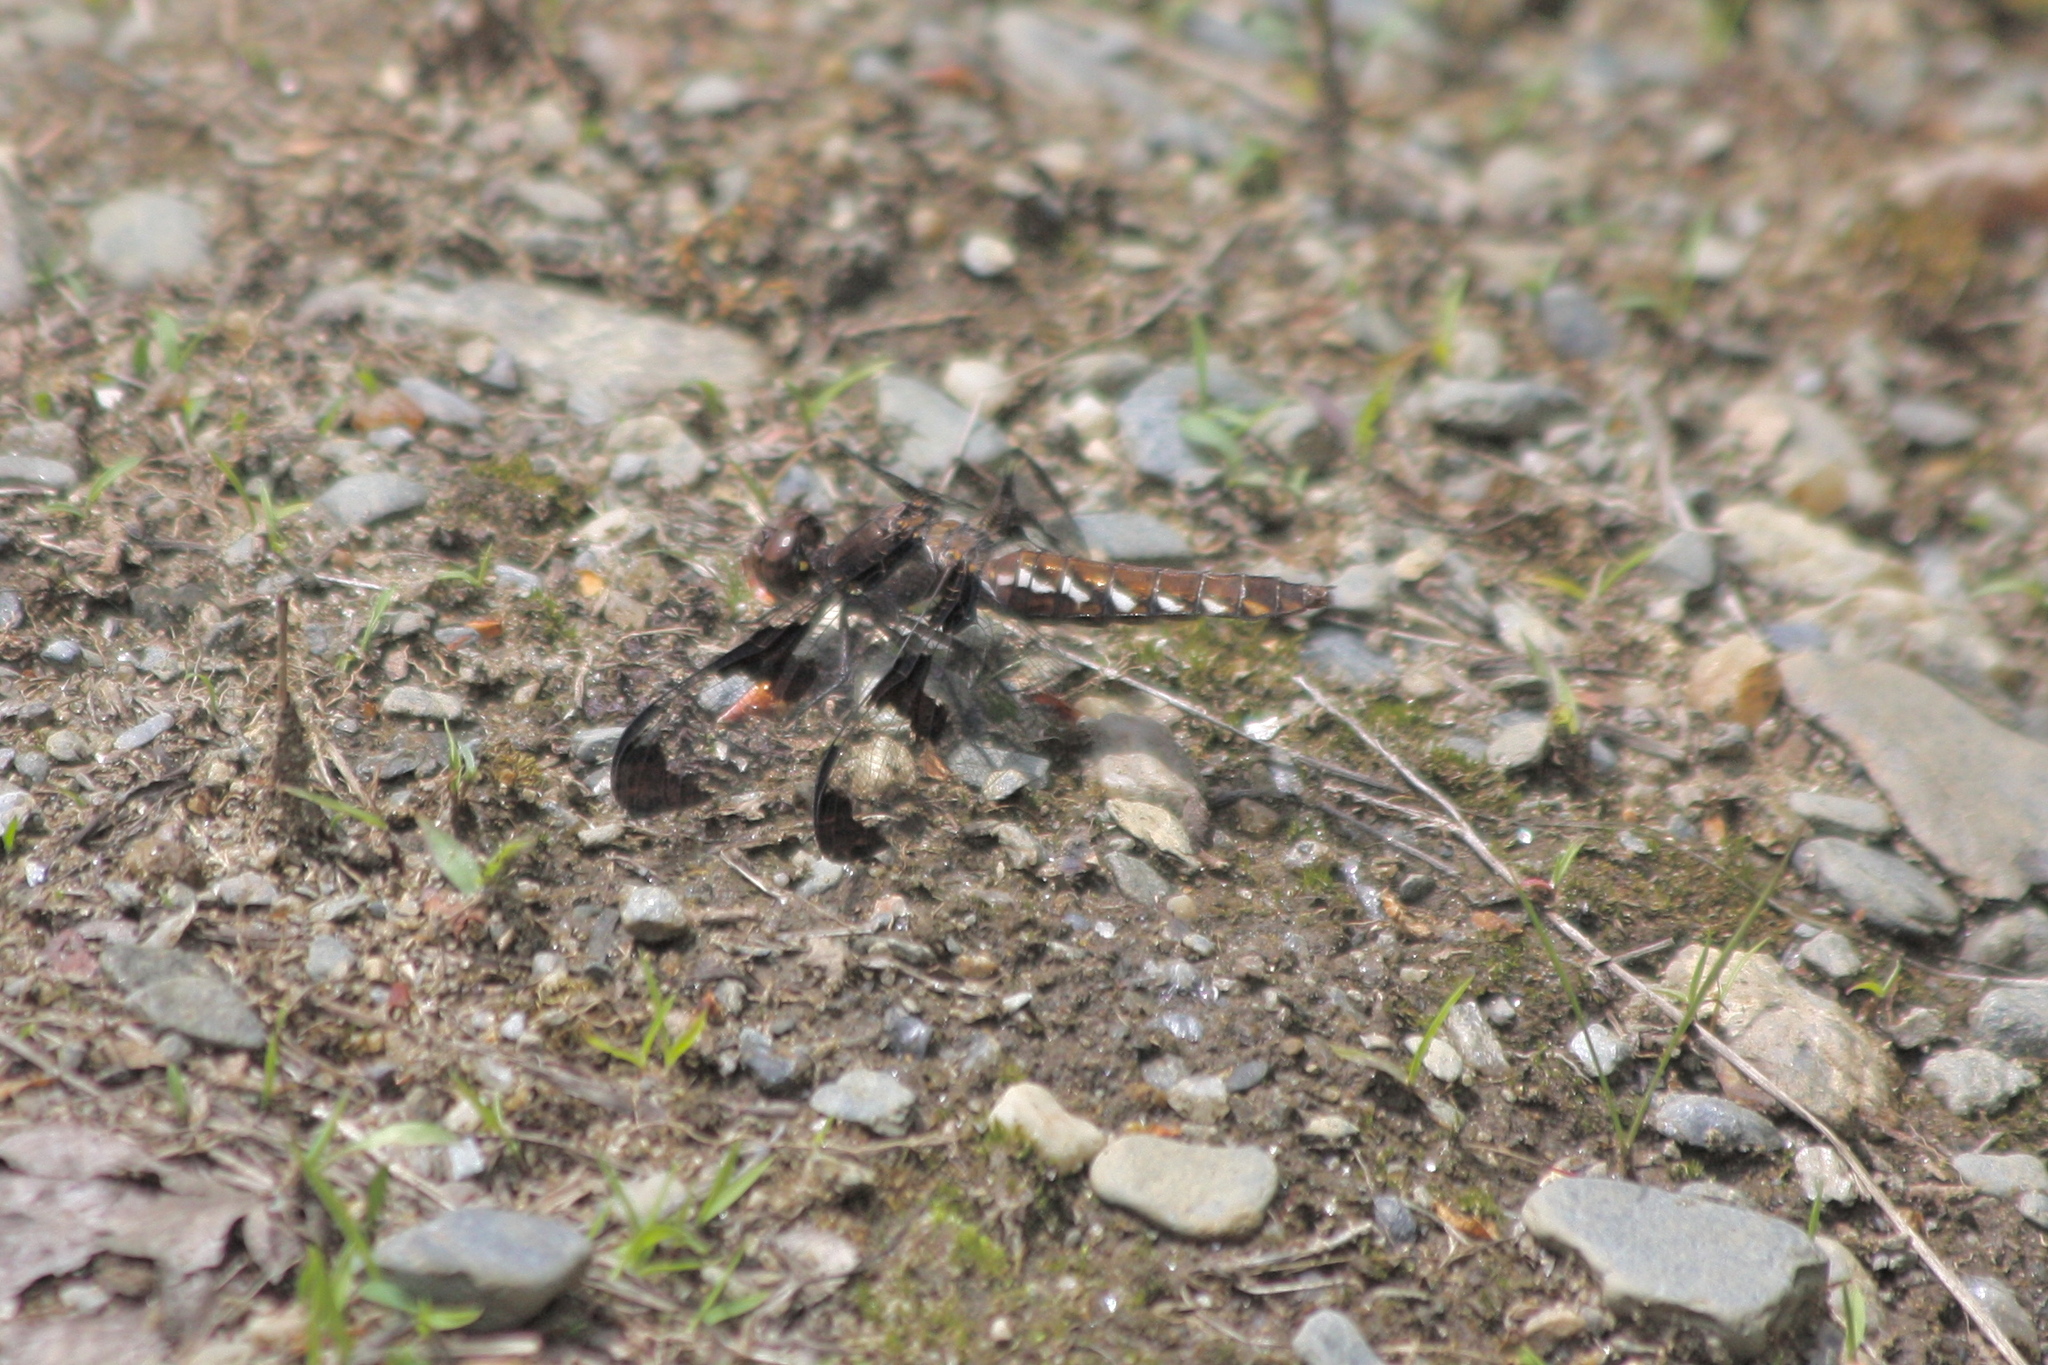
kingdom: Animalia
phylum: Arthropoda
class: Insecta
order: Odonata
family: Libellulidae
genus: Plathemis
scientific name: Plathemis lydia
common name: Common whitetail
